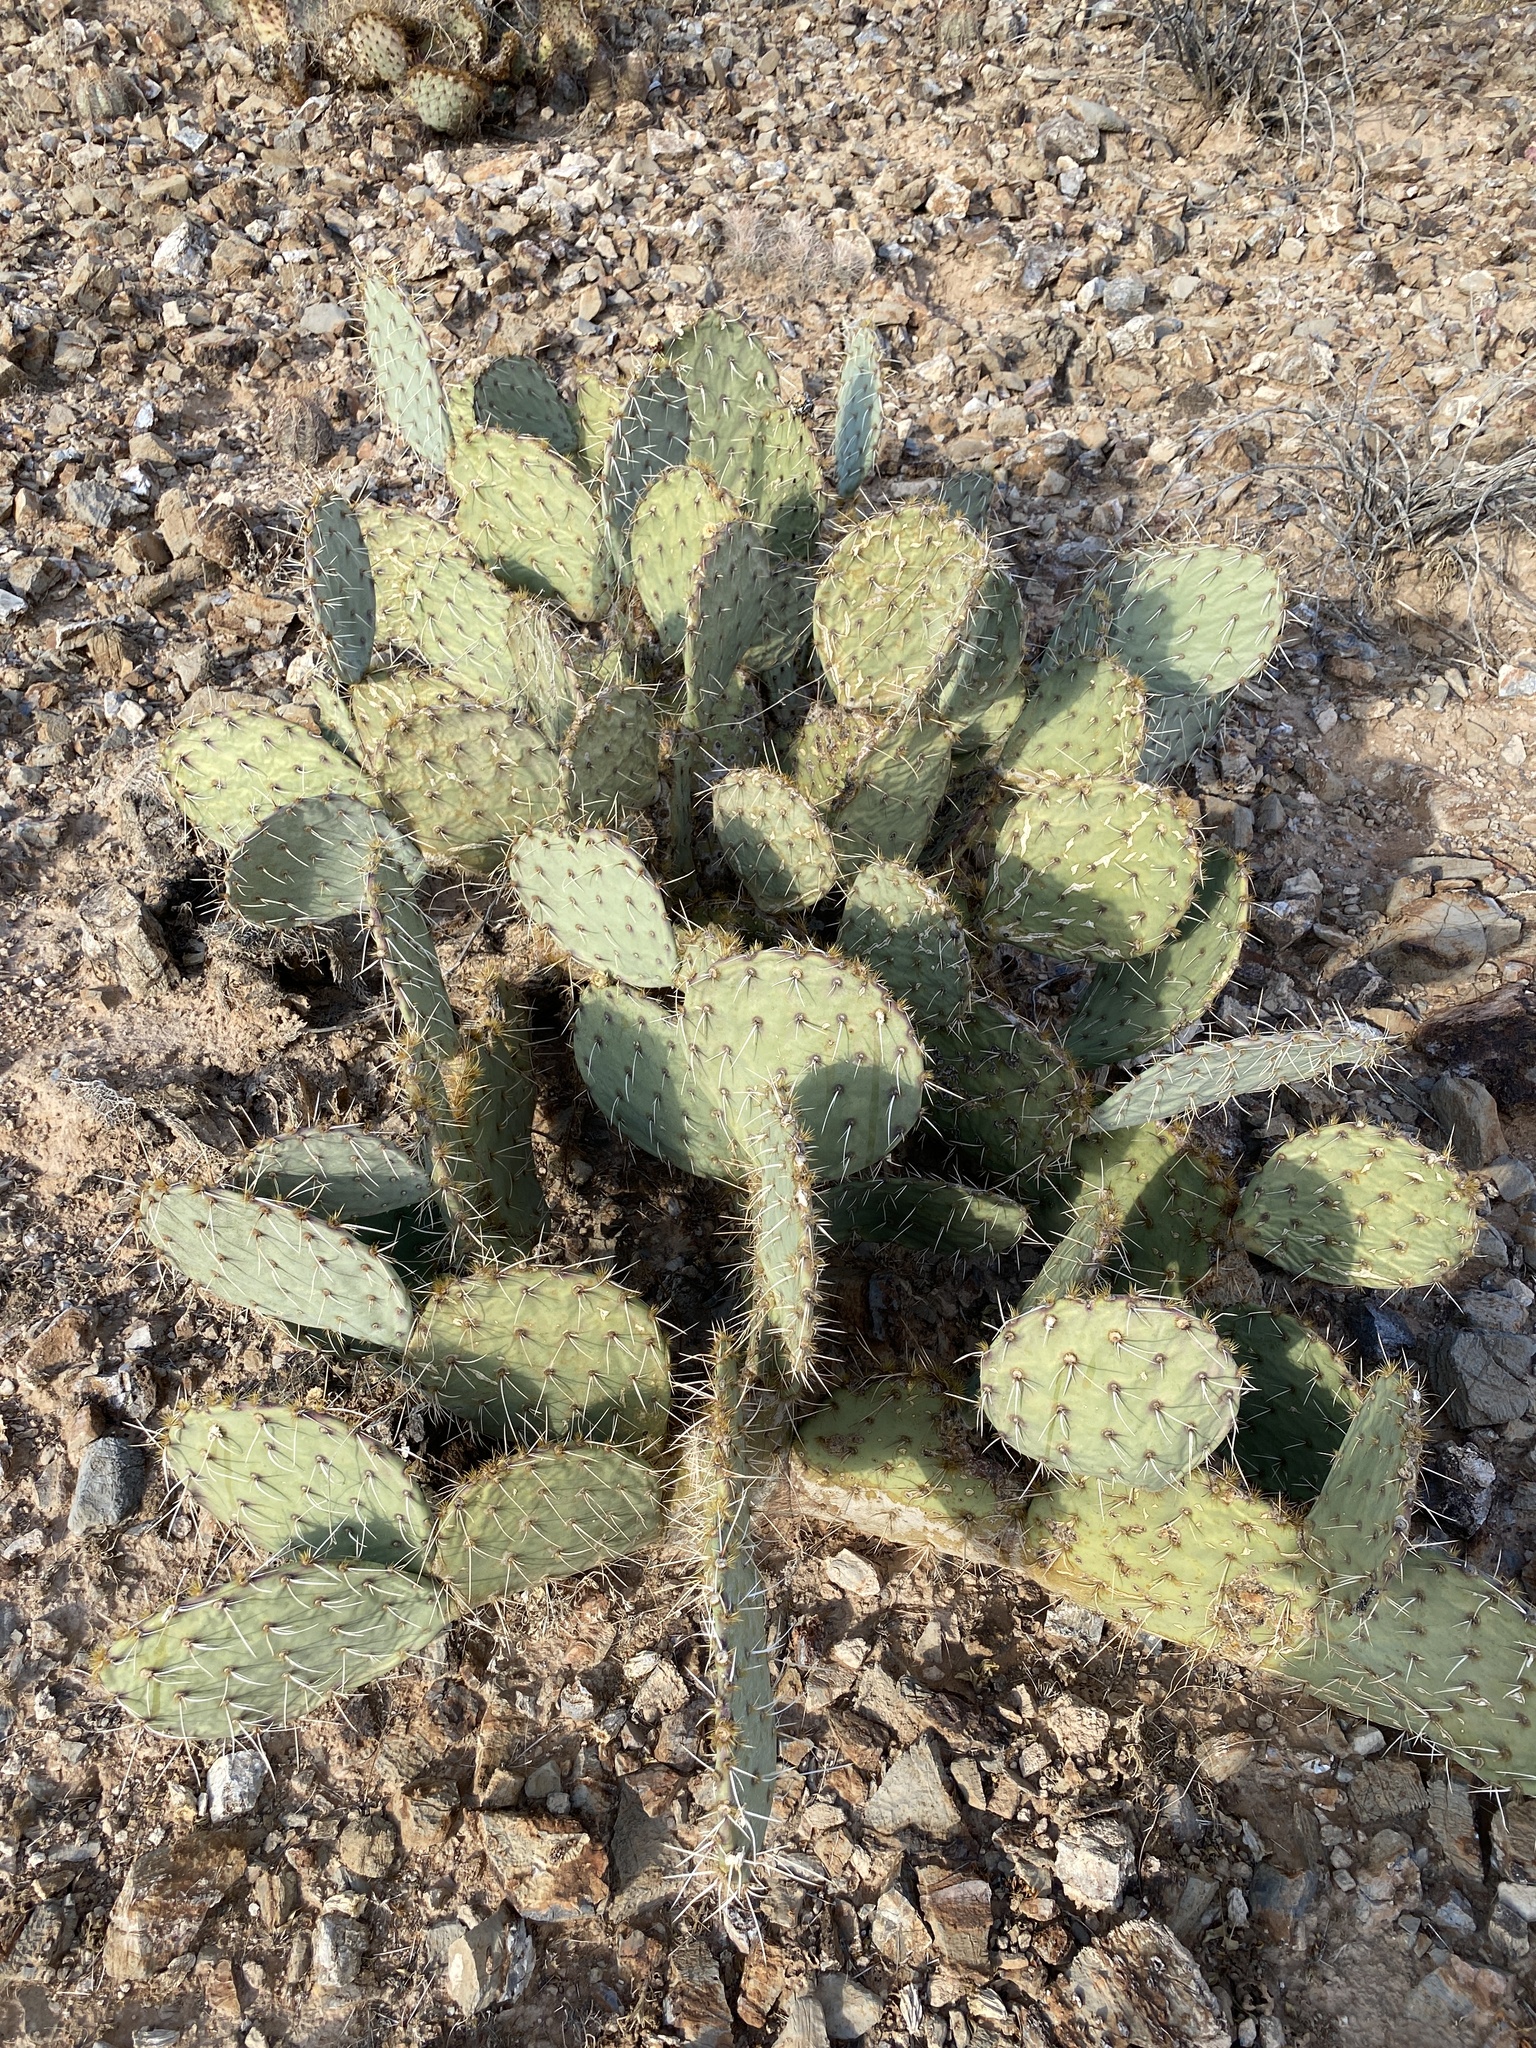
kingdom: Plantae
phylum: Tracheophyta
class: Magnoliopsida
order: Caryophyllales
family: Cactaceae
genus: Opuntia
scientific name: Opuntia engelmannii
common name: Cactus-apple
